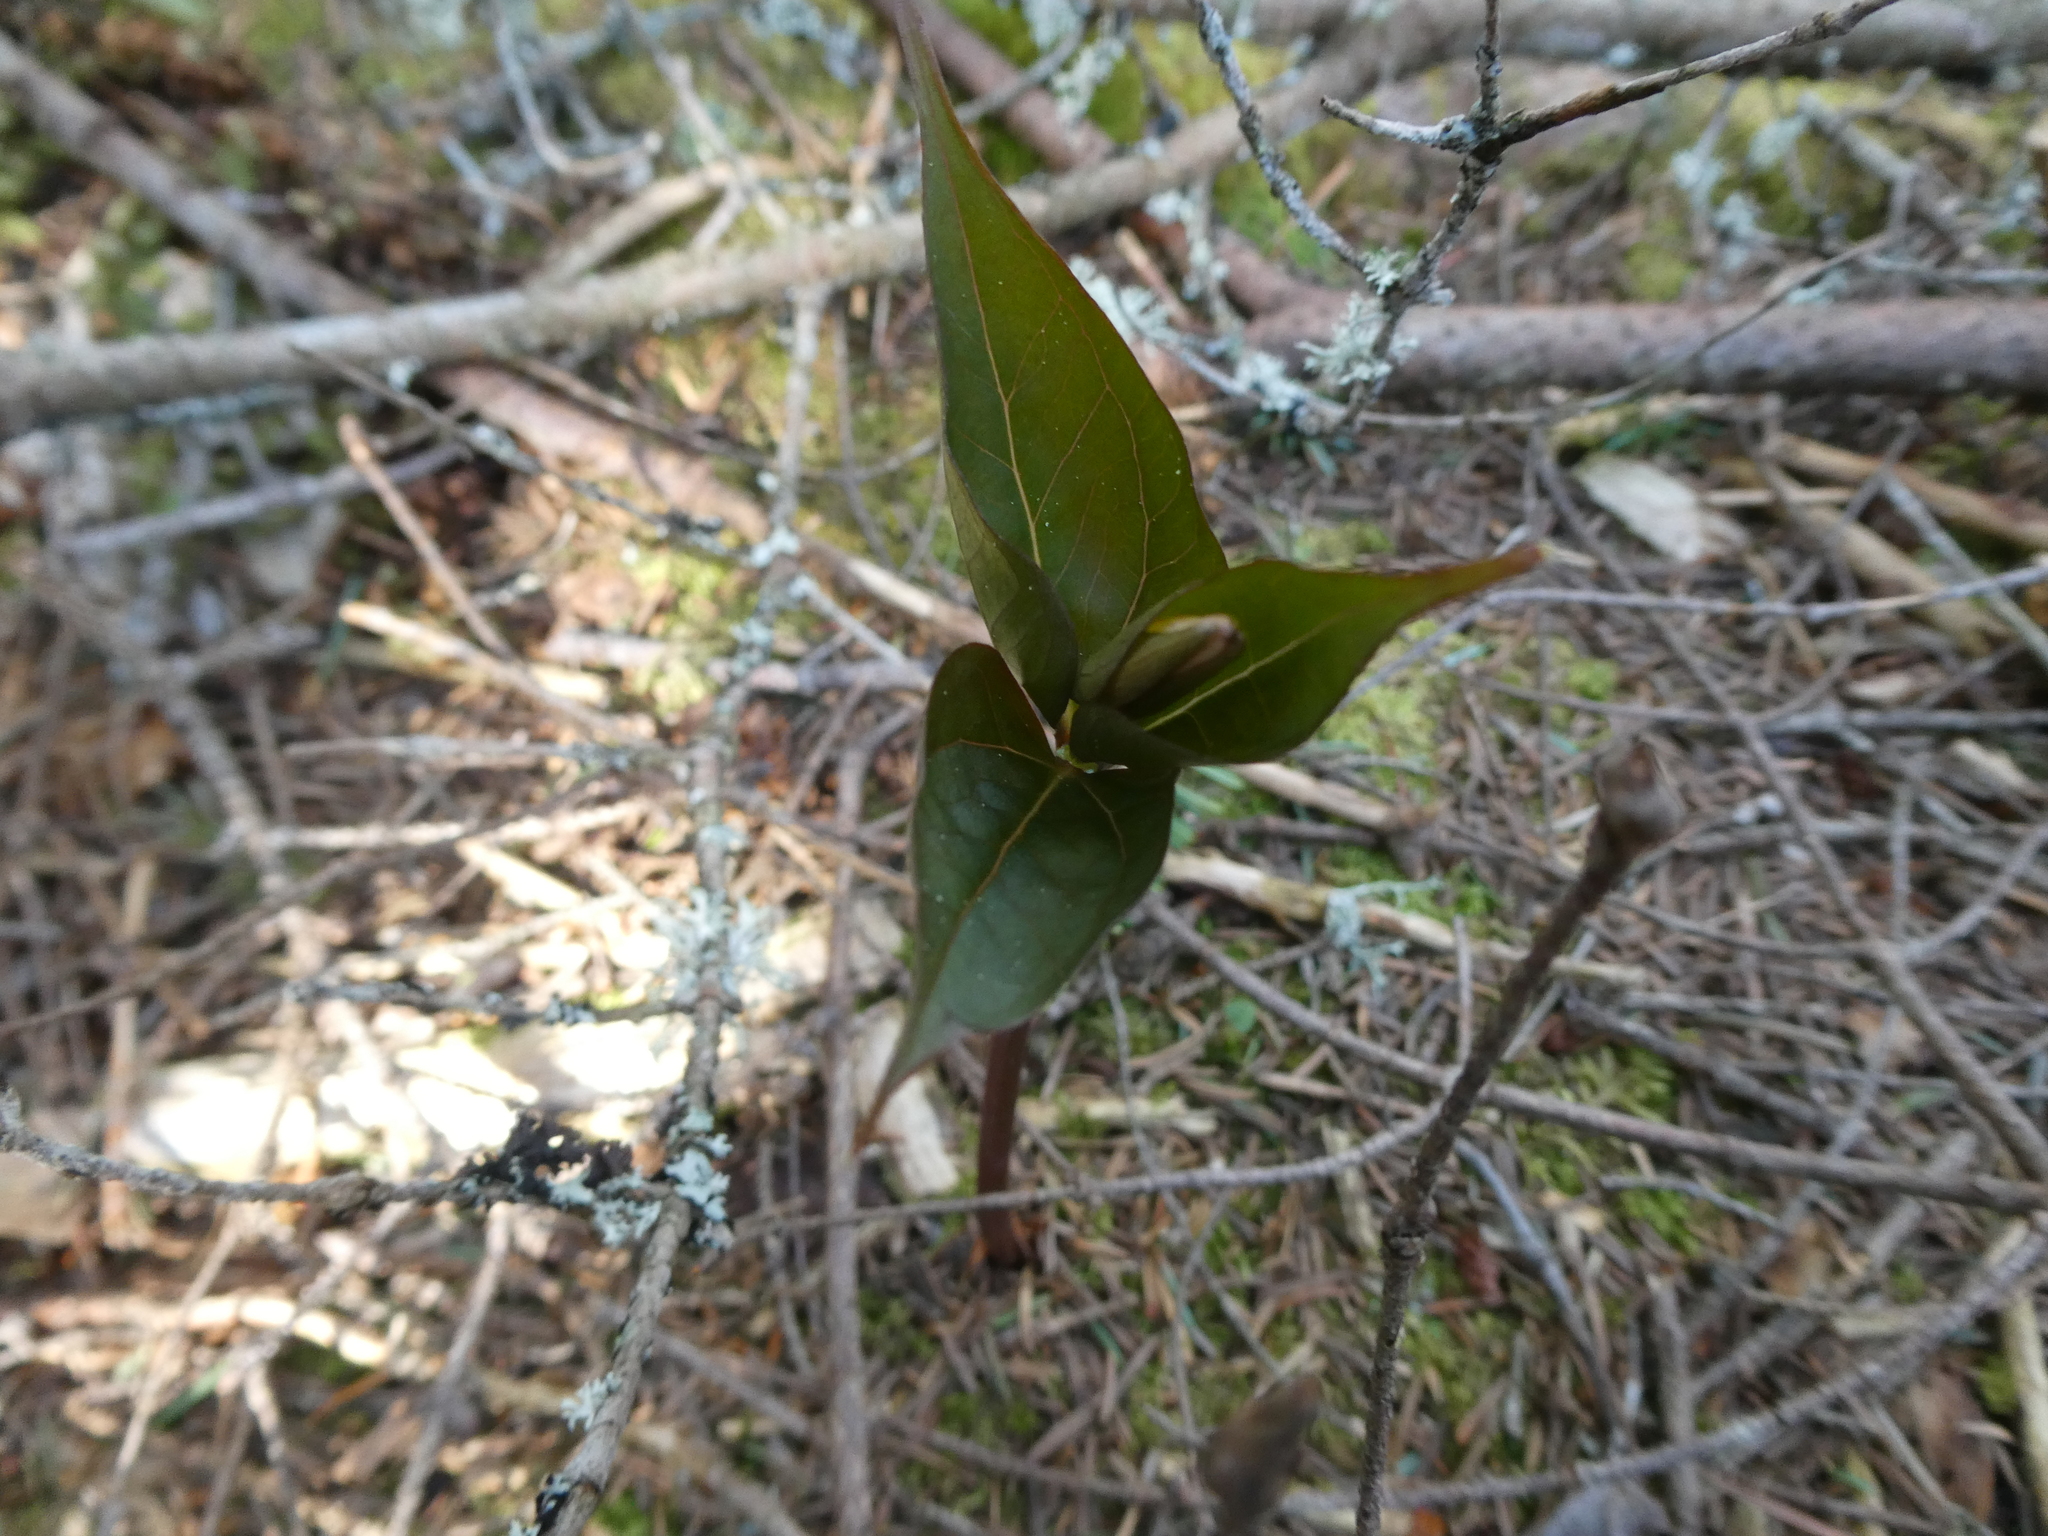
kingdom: Plantae
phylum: Tracheophyta
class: Liliopsida
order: Liliales
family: Melanthiaceae
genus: Trillium
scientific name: Trillium undulatum
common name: Paint trillium
